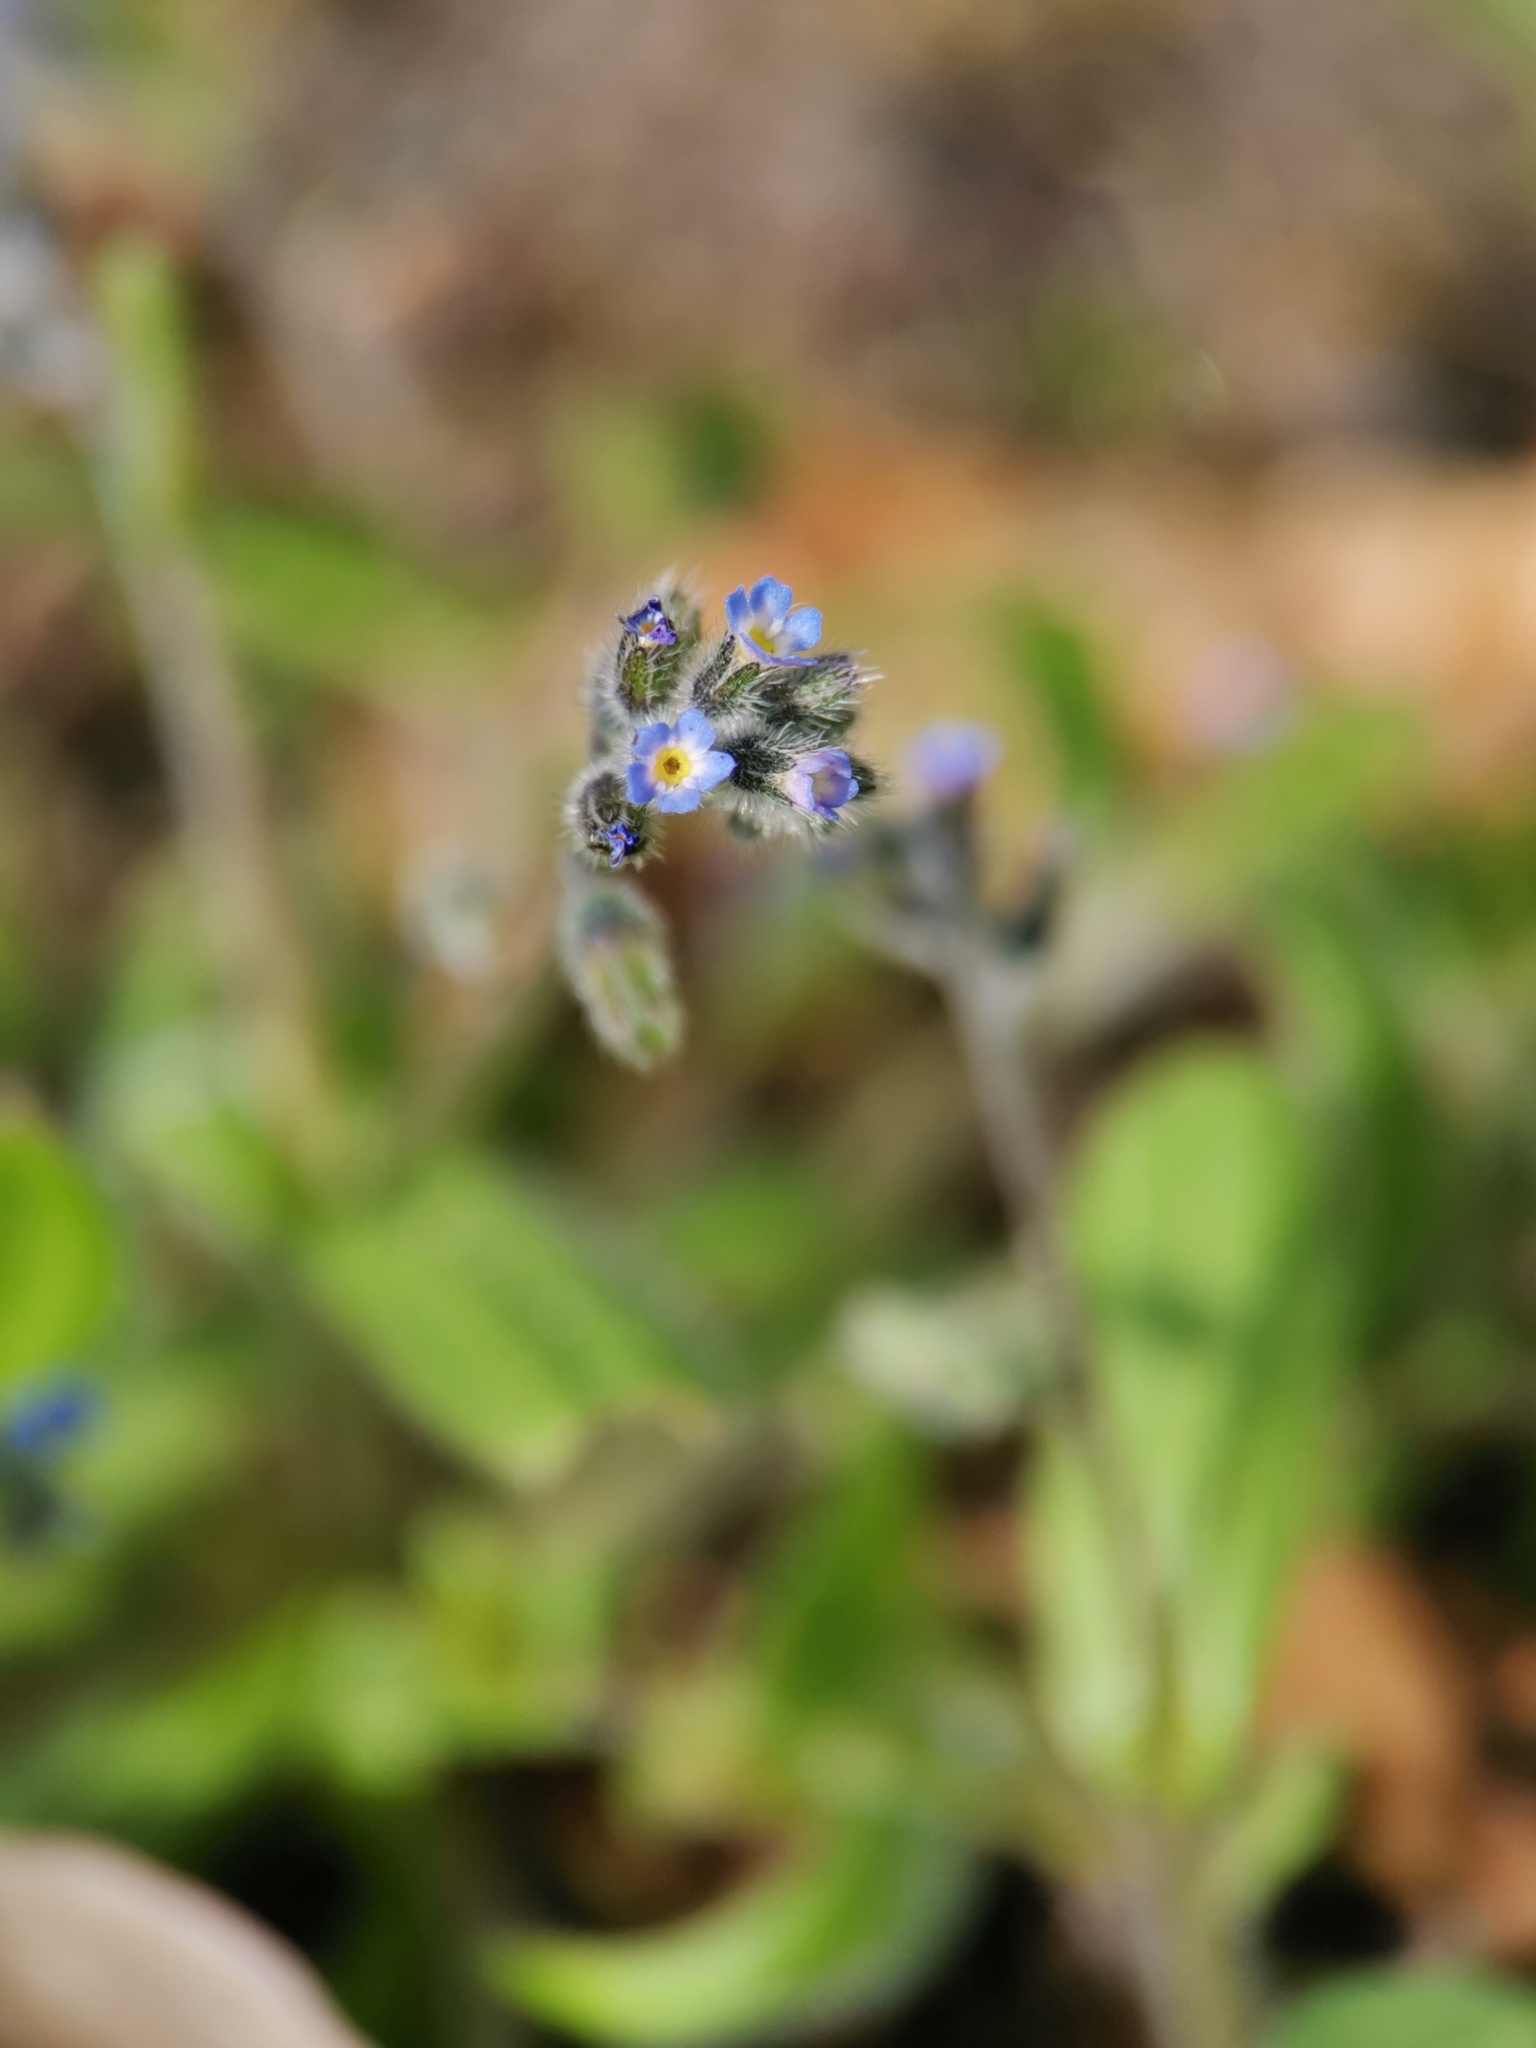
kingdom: Plantae
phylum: Tracheophyta
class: Magnoliopsida
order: Boraginales
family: Boraginaceae
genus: Myosotis
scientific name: Myosotis ramosissima
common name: Early forget-me-not
